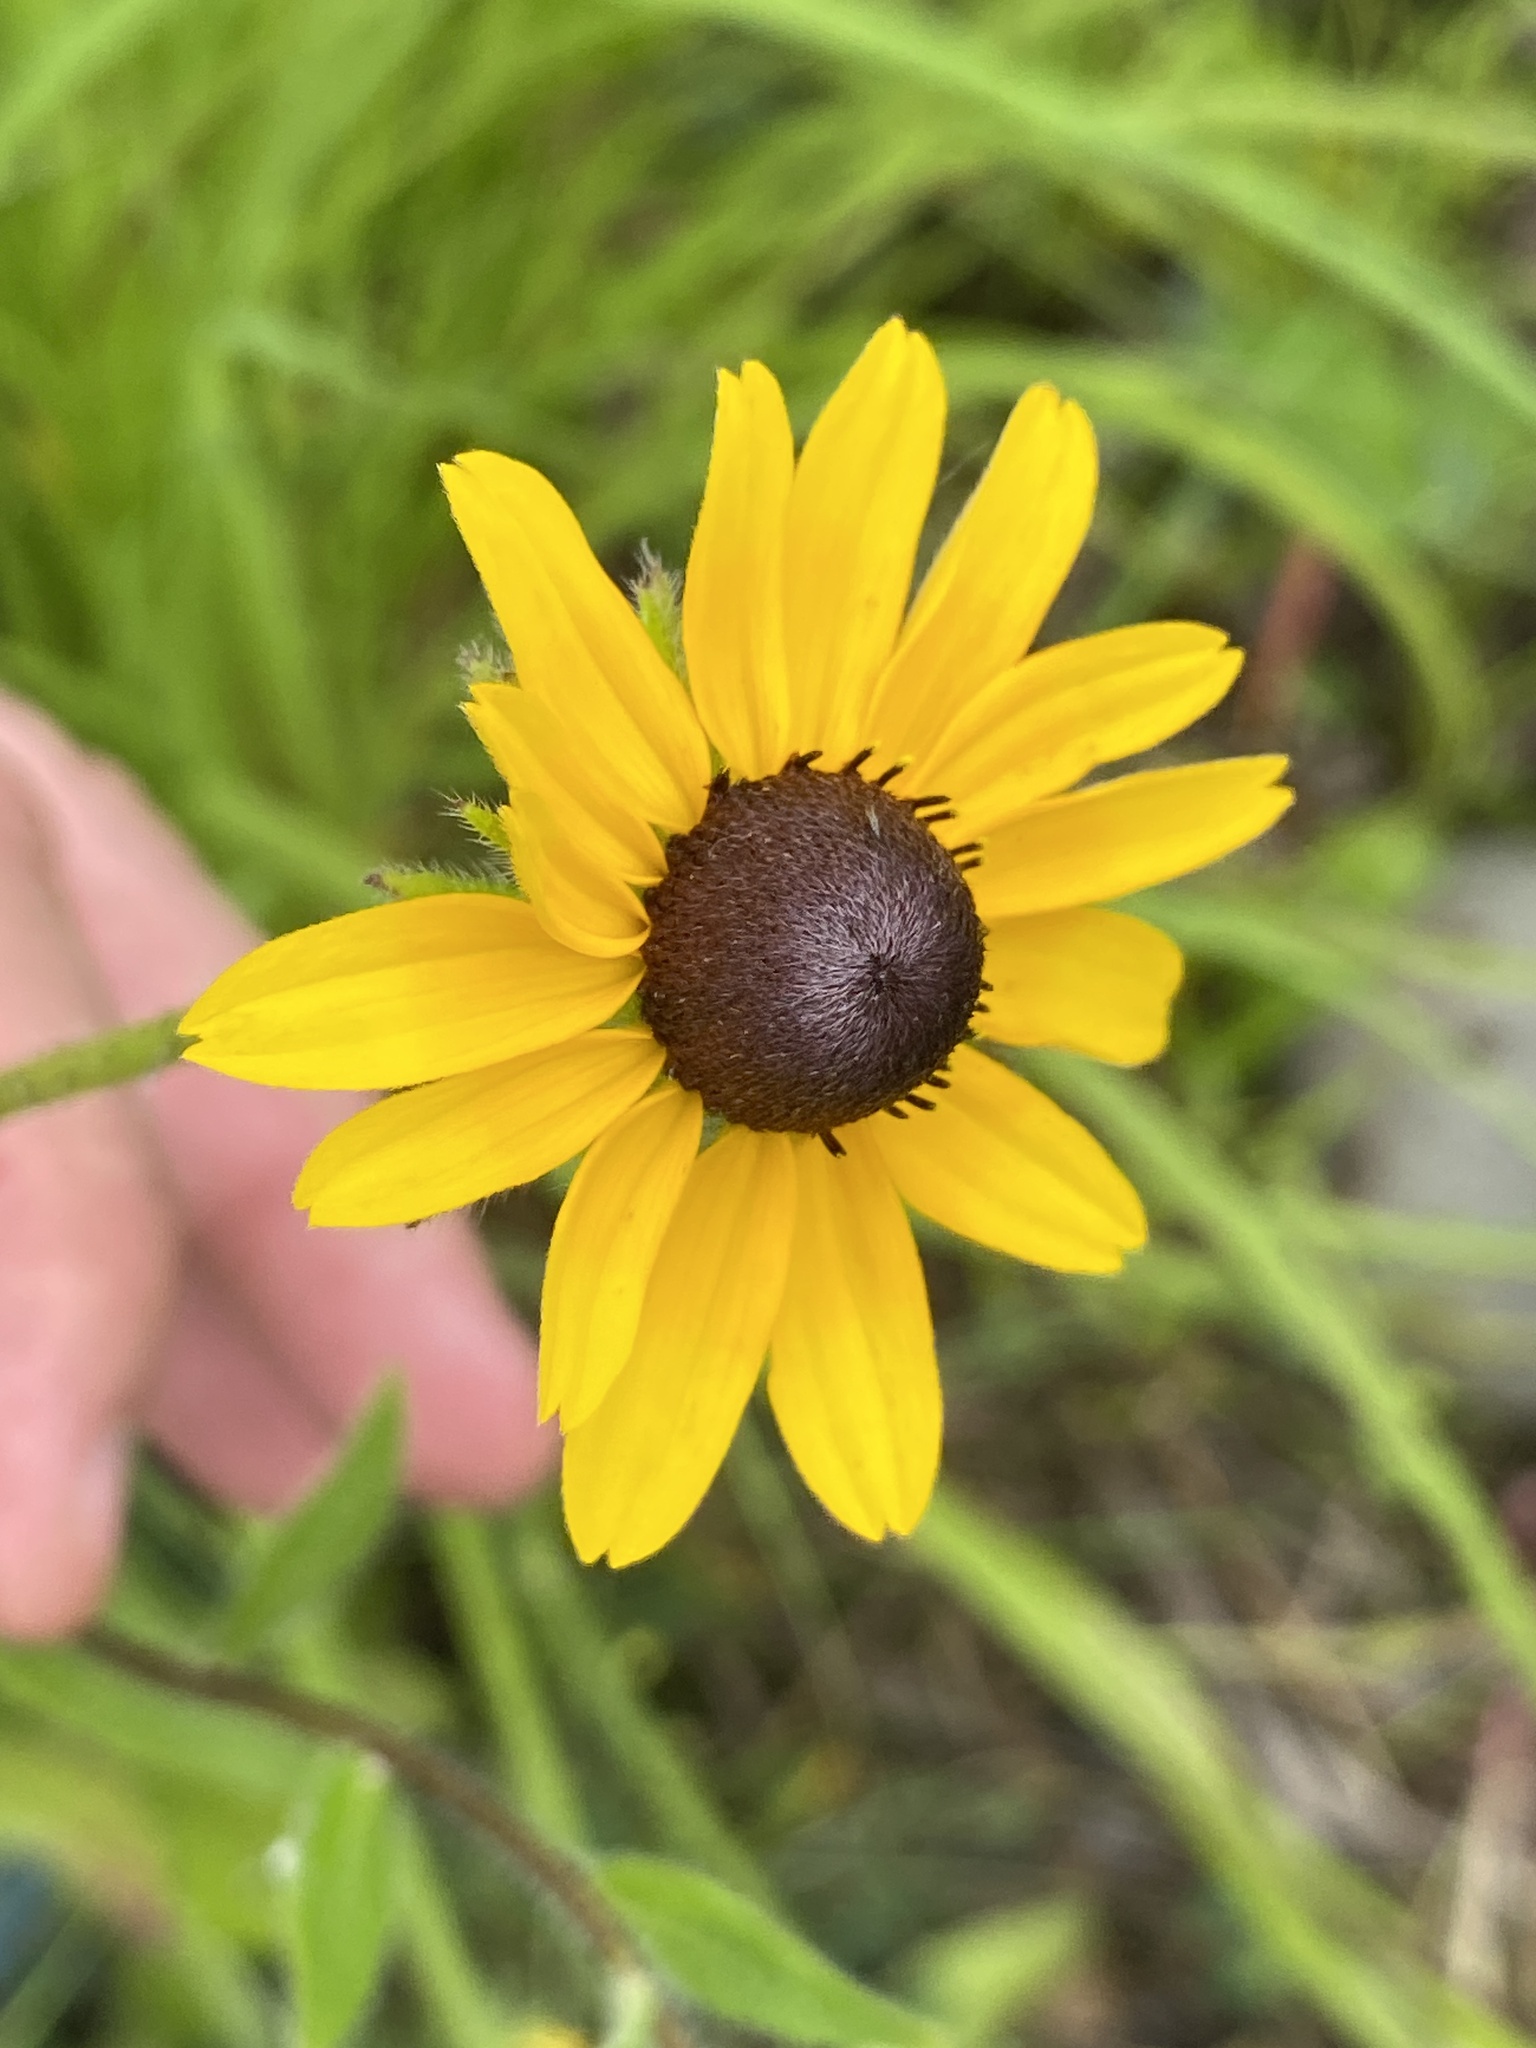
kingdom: Plantae
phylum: Tracheophyta
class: Magnoliopsida
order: Asterales
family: Asteraceae
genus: Rudbeckia
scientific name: Rudbeckia hirta
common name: Black-eyed-susan
